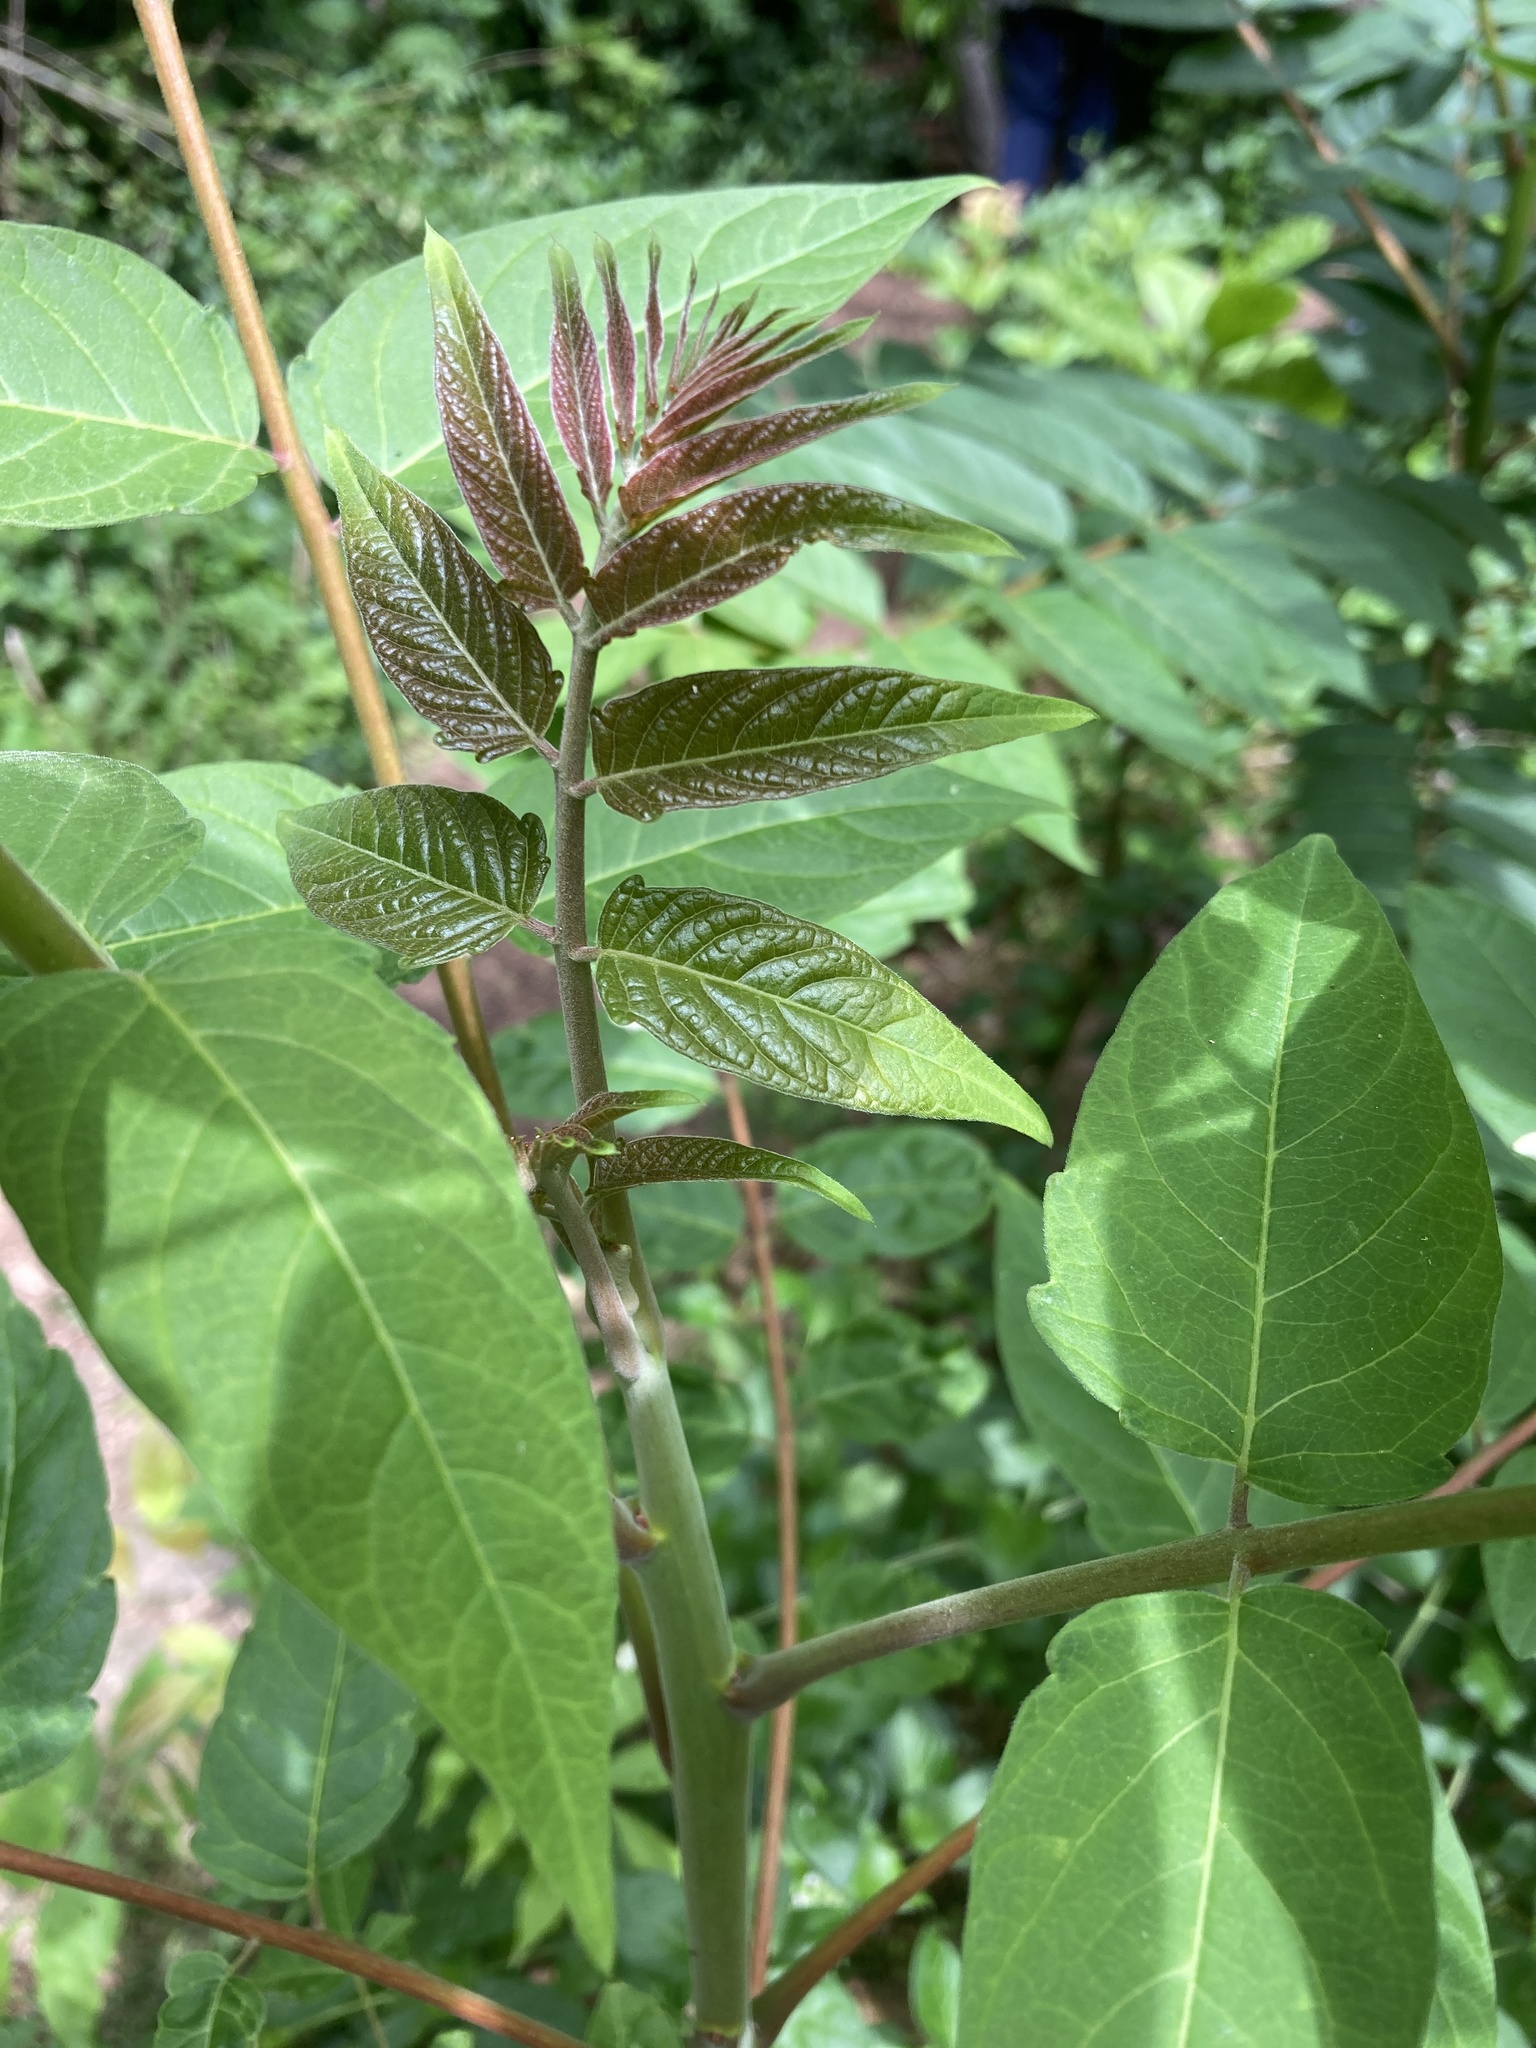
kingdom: Plantae
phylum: Tracheophyta
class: Magnoliopsida
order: Sapindales
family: Simaroubaceae
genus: Ailanthus
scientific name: Ailanthus altissima
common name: Tree-of-heaven
